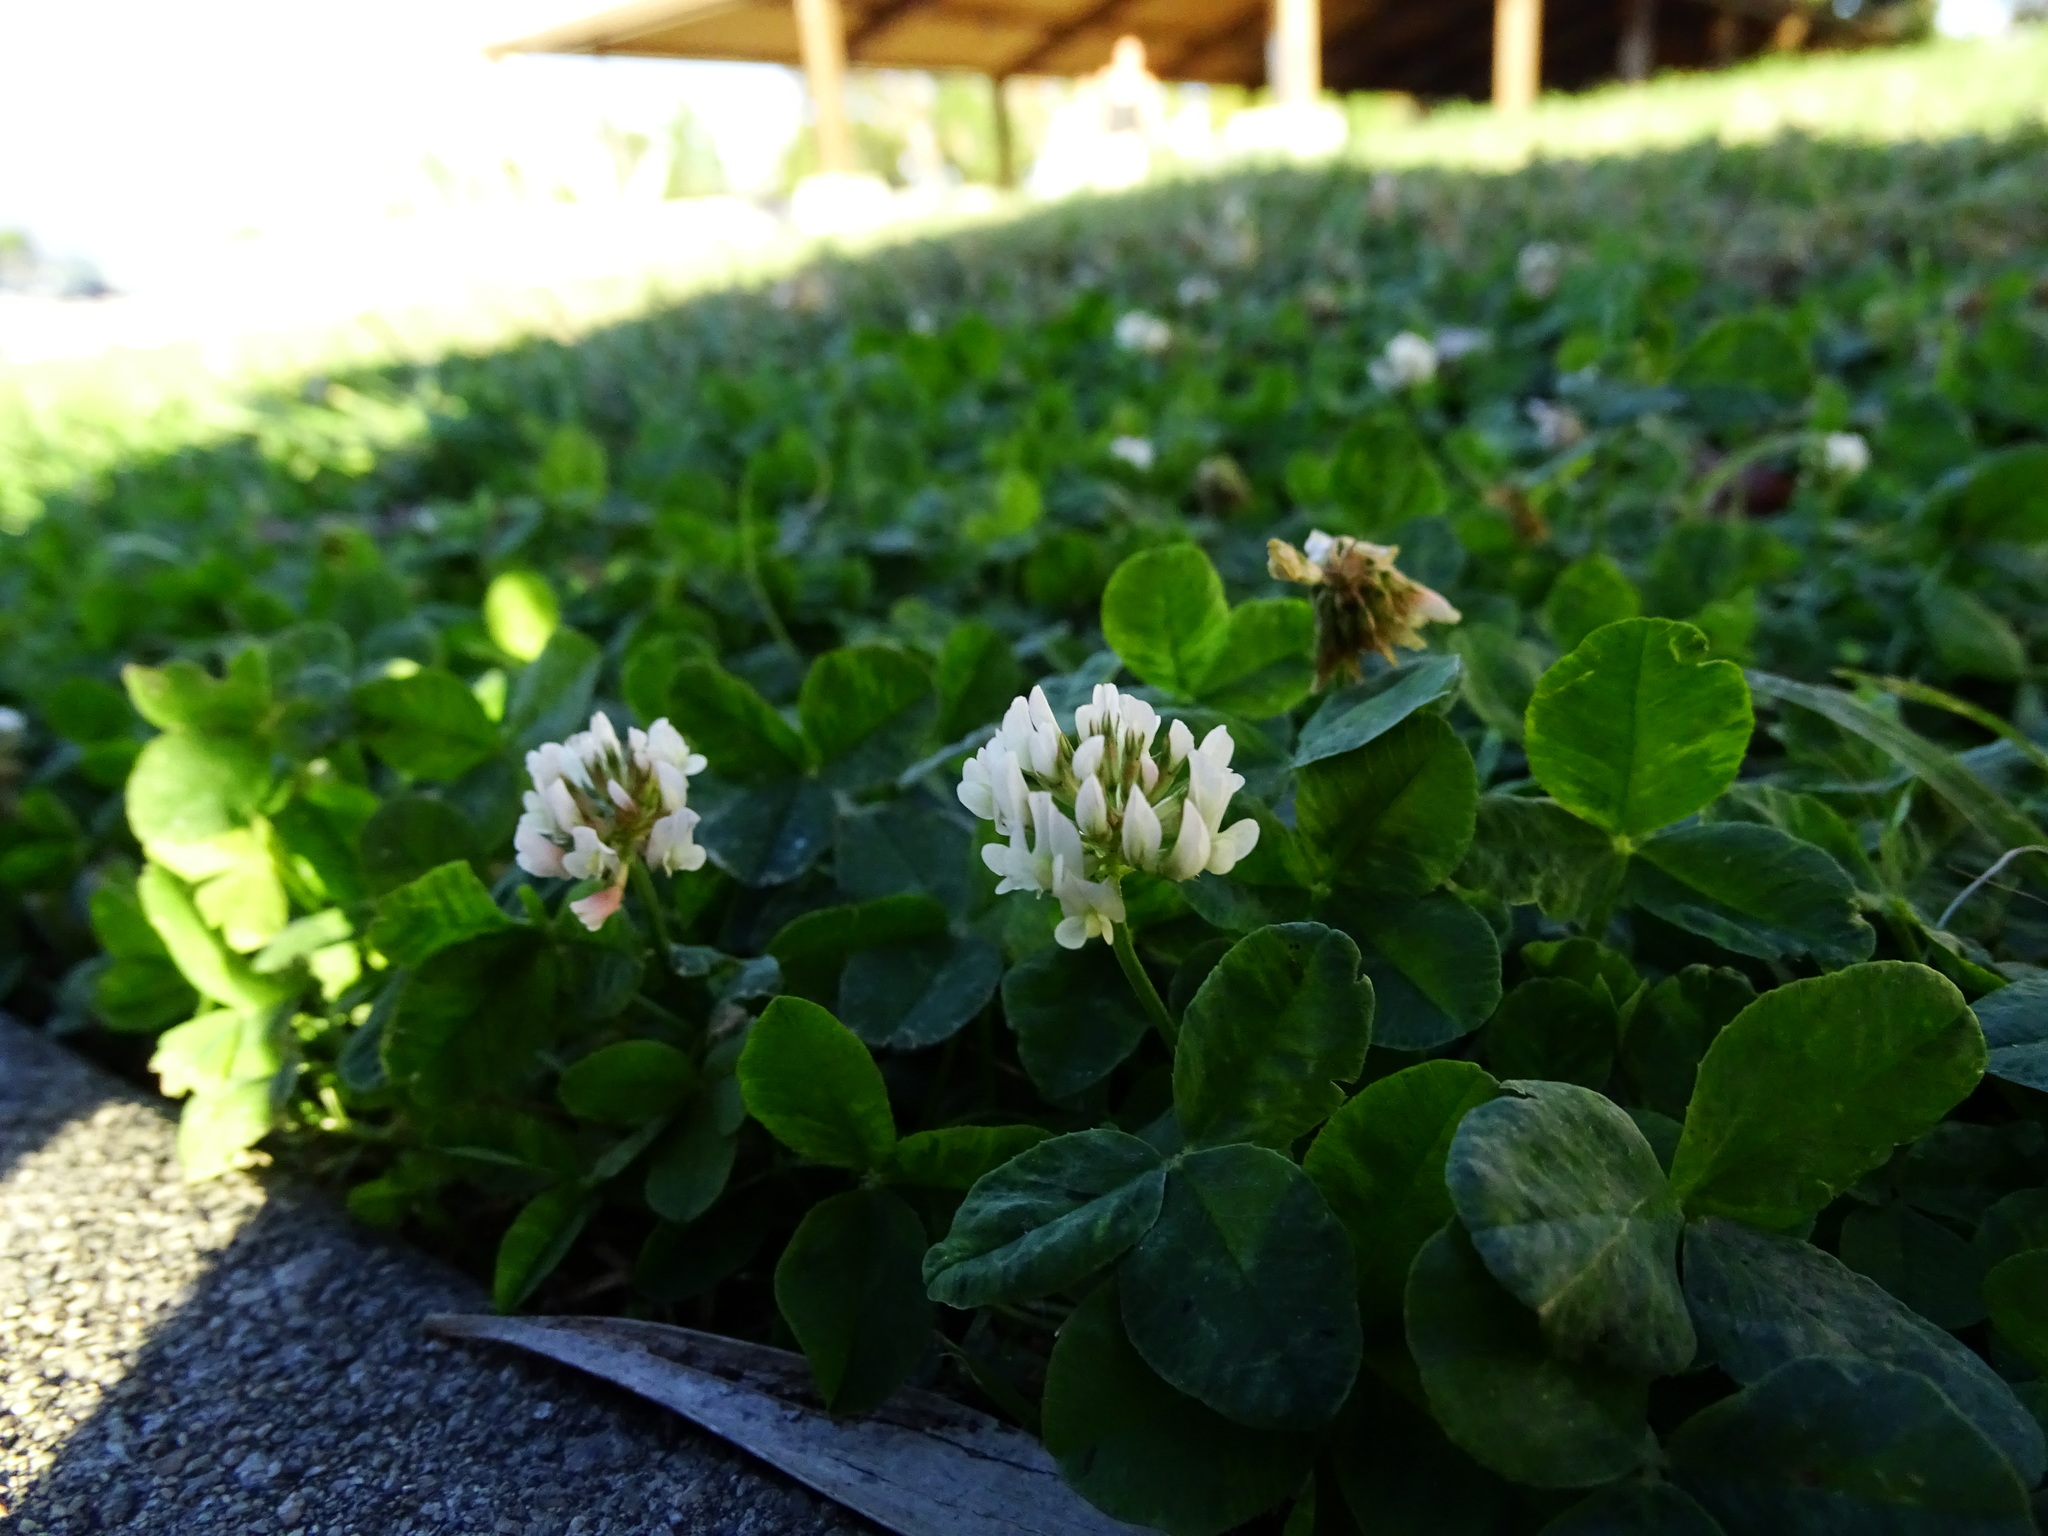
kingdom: Plantae
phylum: Tracheophyta
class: Magnoliopsida
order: Fabales
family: Fabaceae
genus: Trifolium
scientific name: Trifolium repens
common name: White clover
